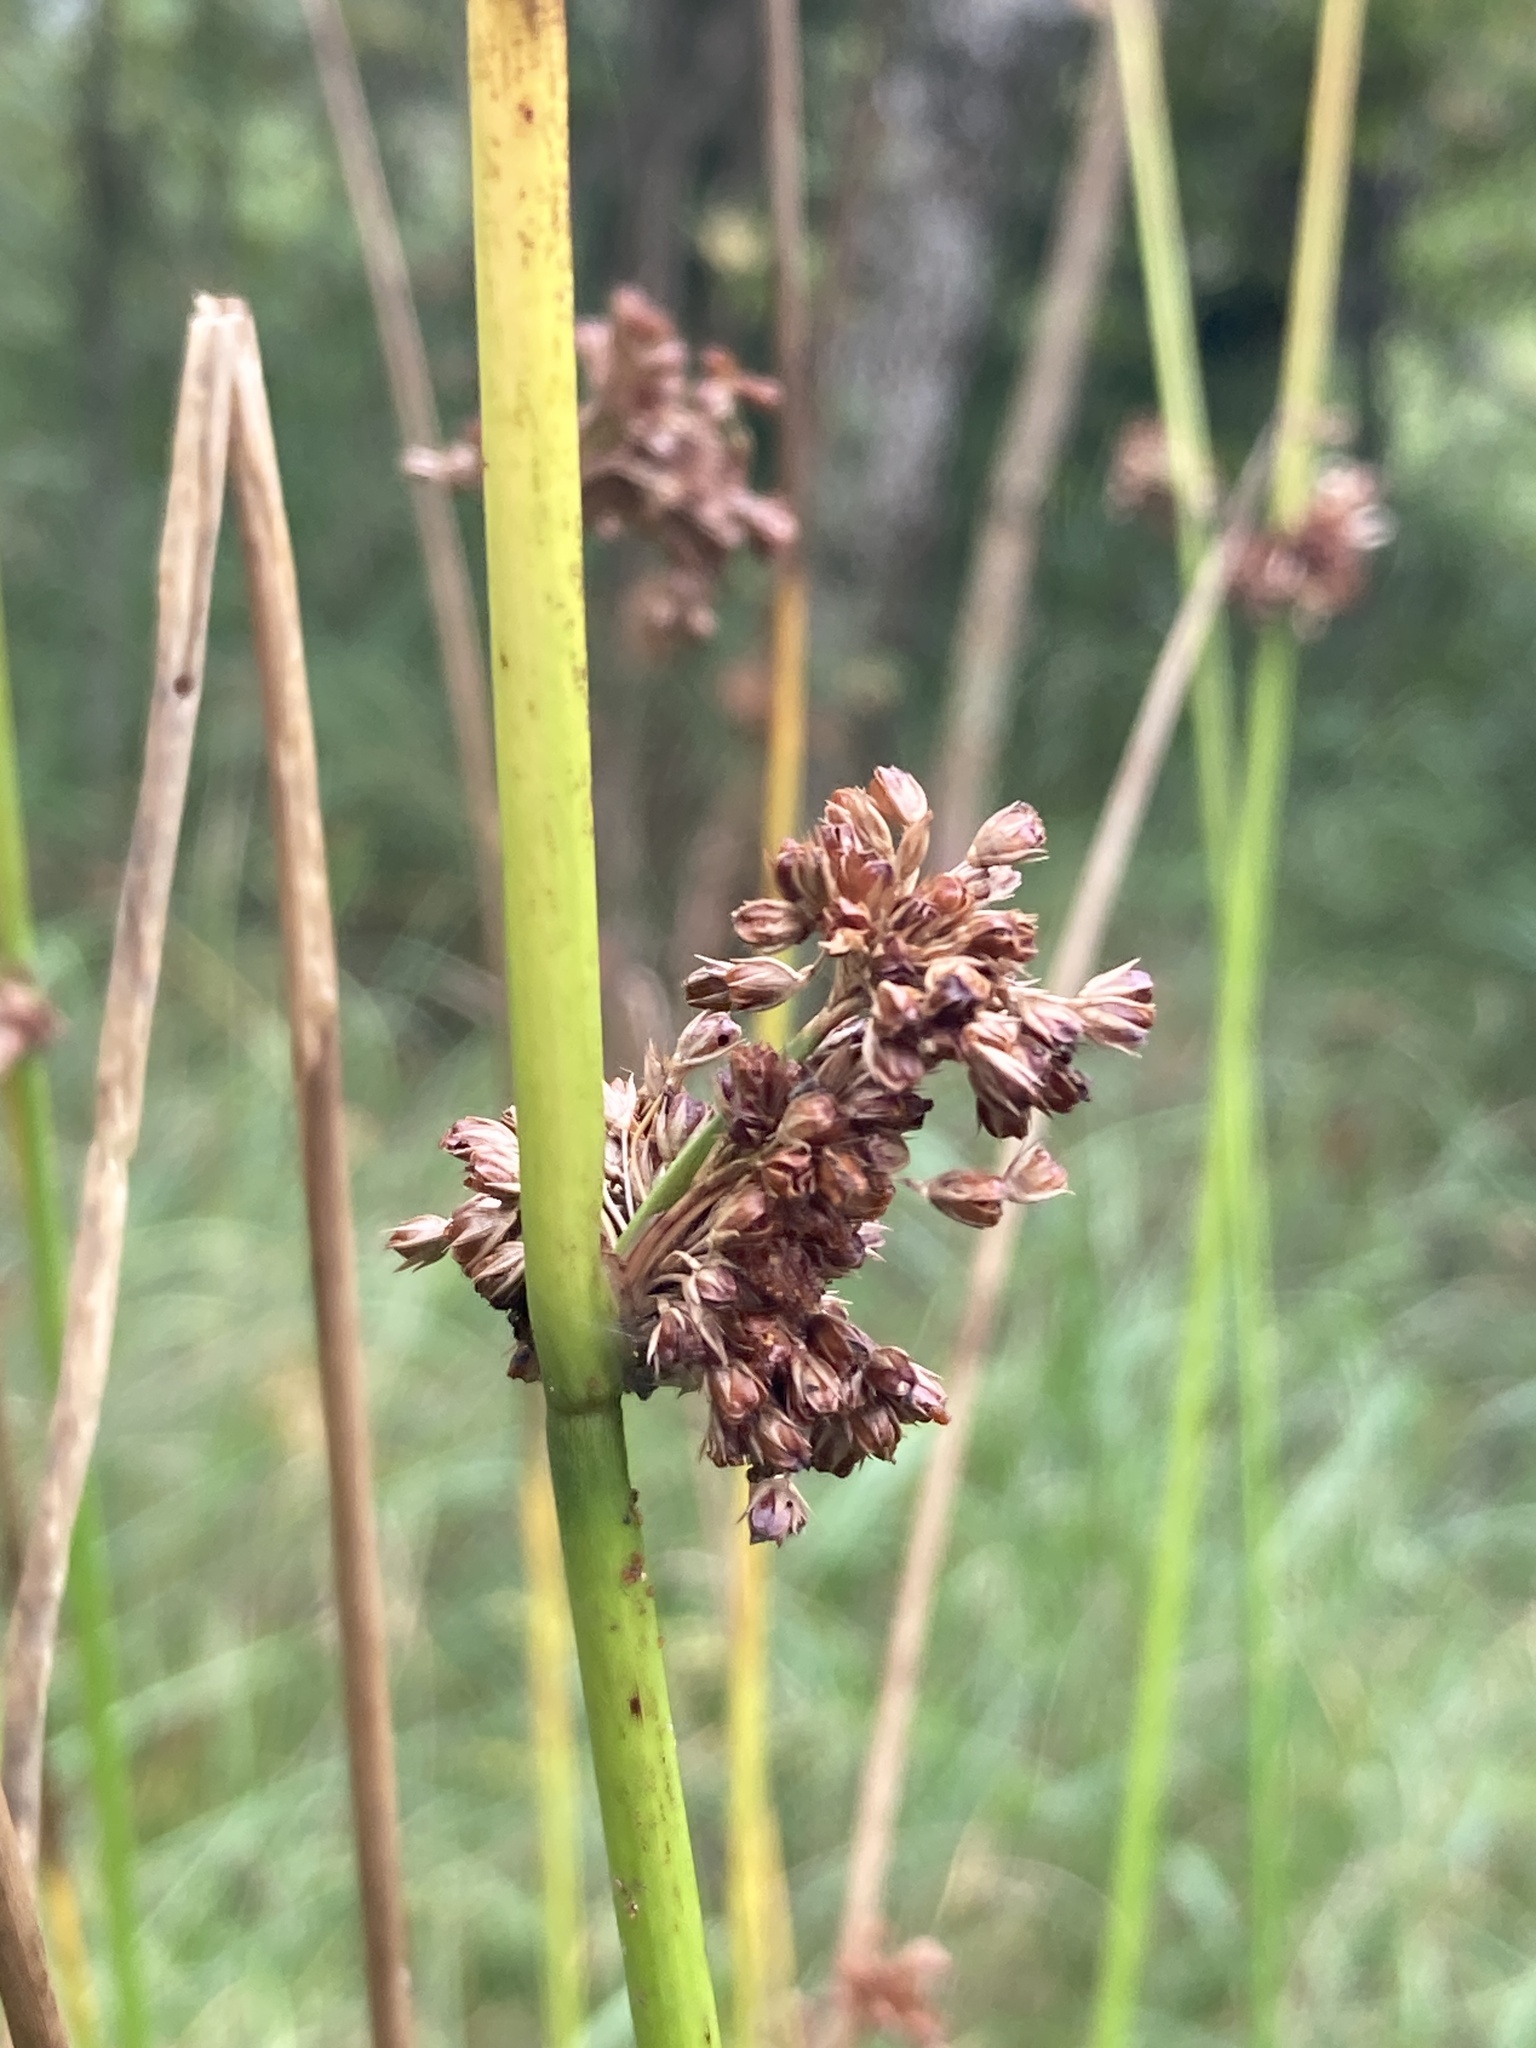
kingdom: Plantae
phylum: Tracheophyta
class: Liliopsida
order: Poales
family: Juncaceae
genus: Juncus
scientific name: Juncus effusus
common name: Soft rush
